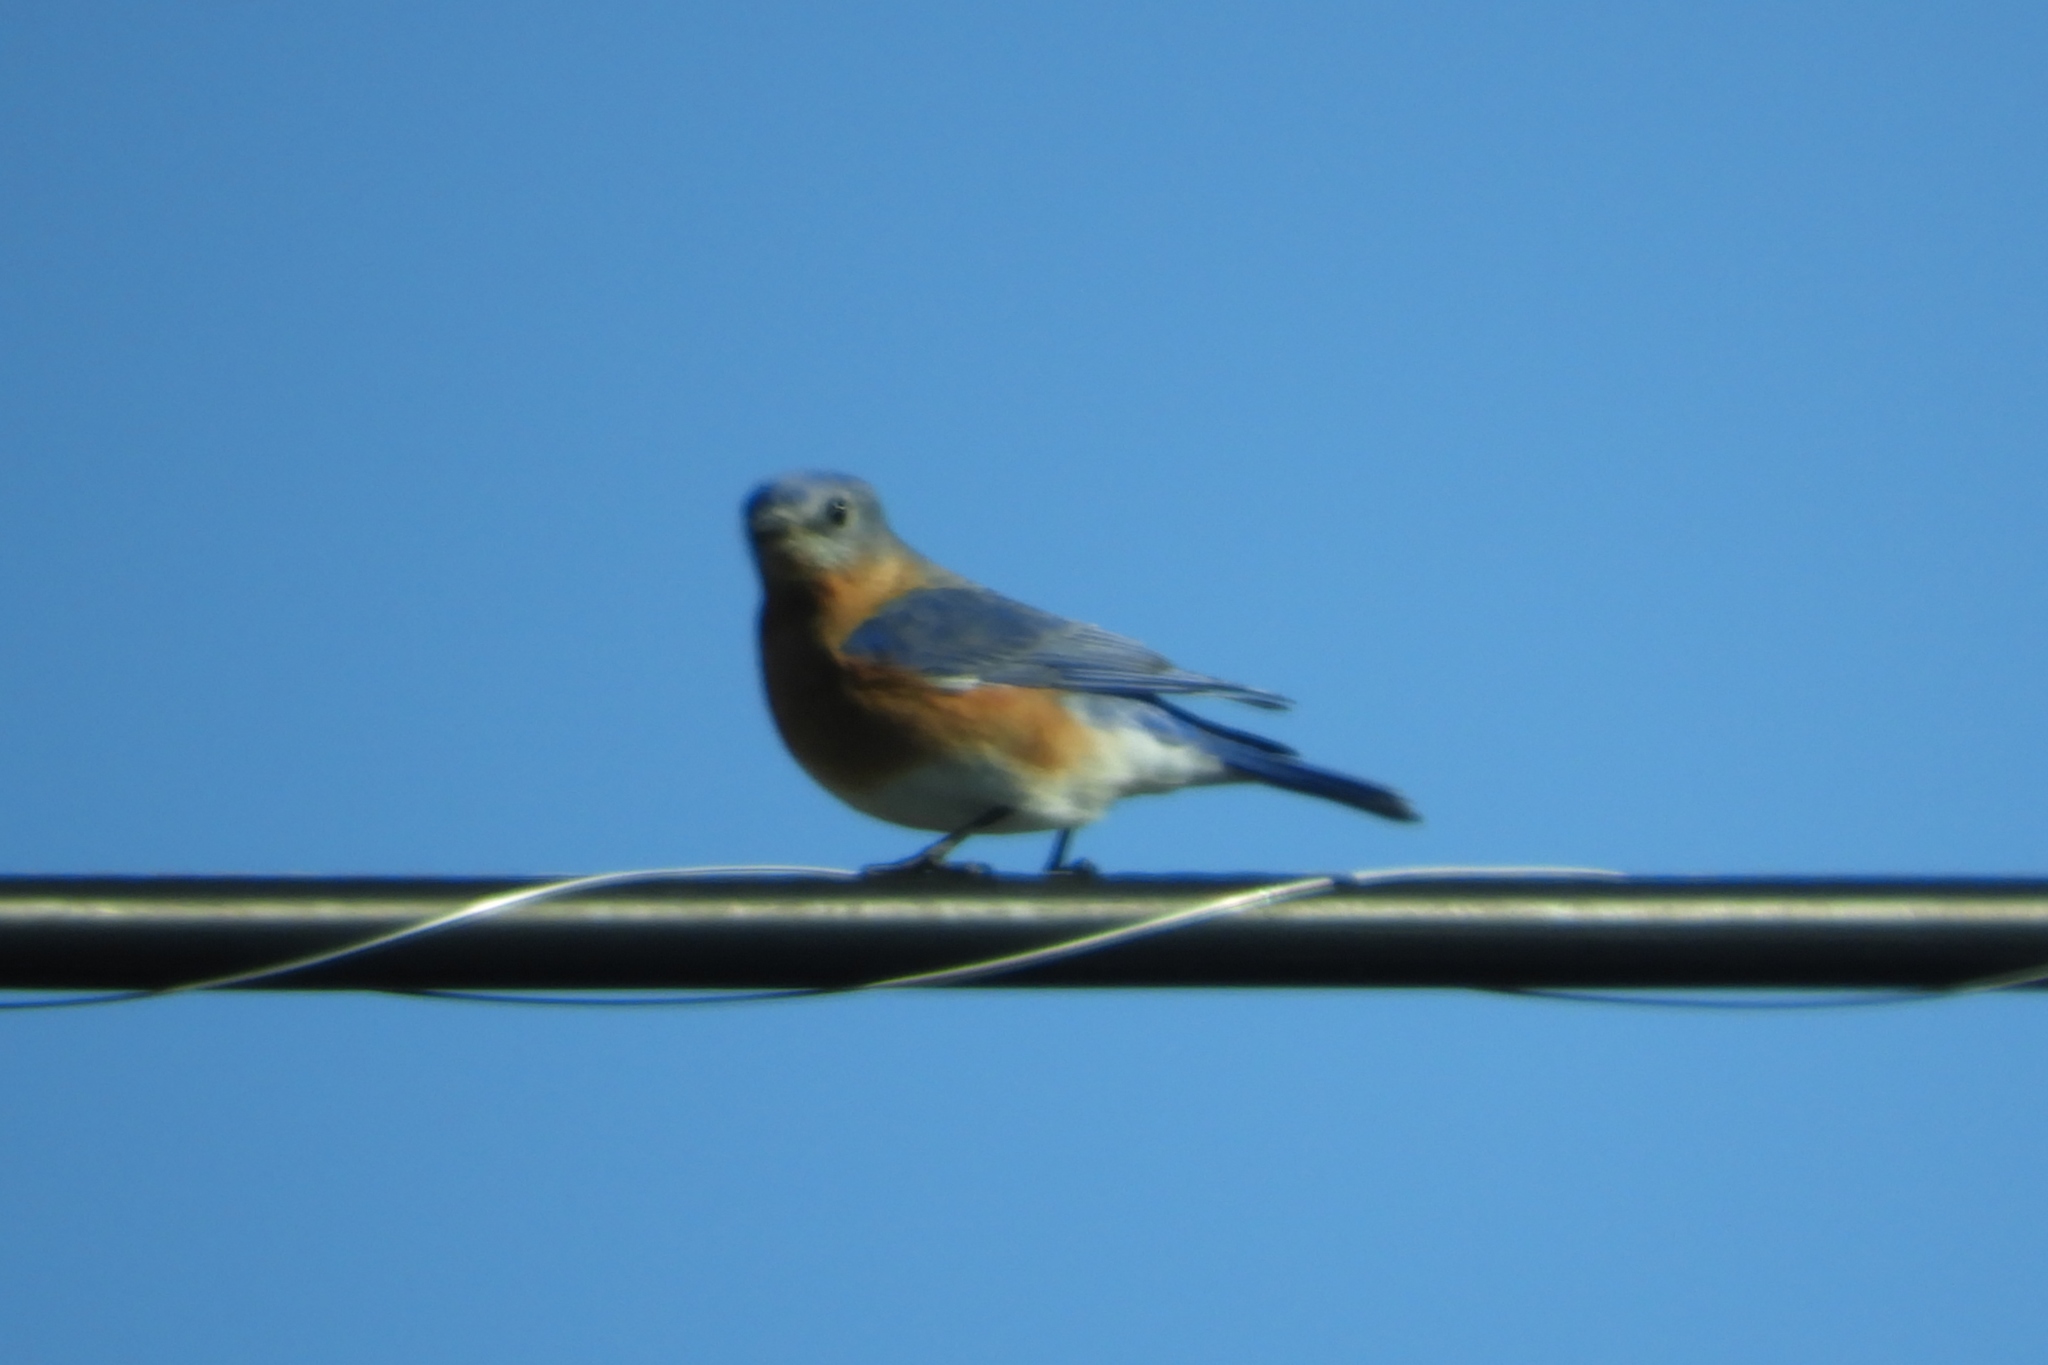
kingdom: Animalia
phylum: Chordata
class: Aves
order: Passeriformes
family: Turdidae
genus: Sialia
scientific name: Sialia sialis
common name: Eastern bluebird
